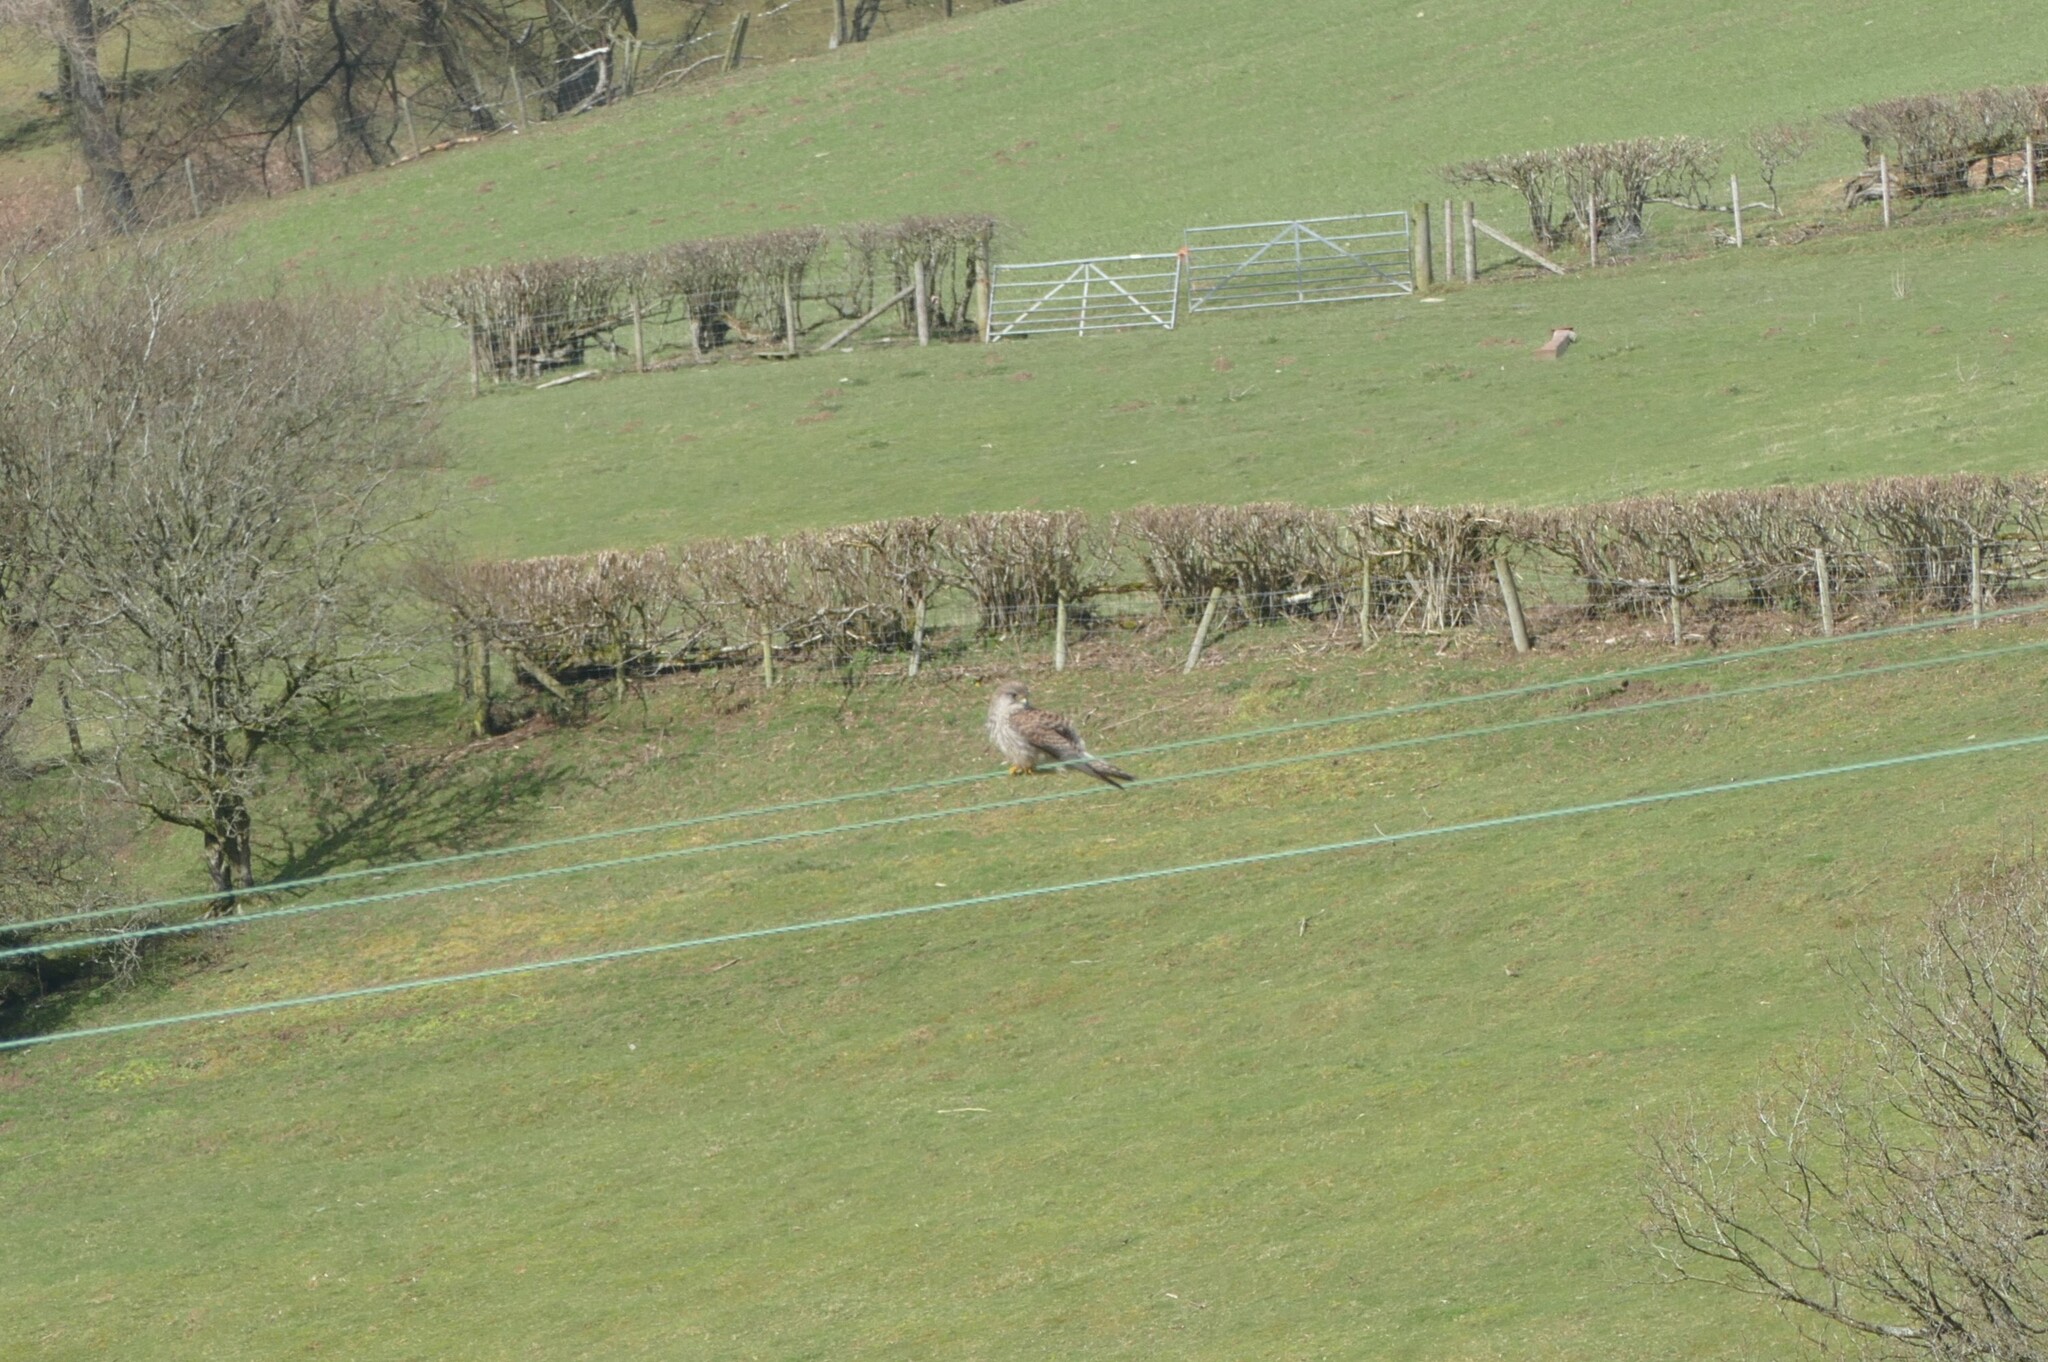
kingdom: Animalia
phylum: Chordata
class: Aves
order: Falconiformes
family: Falconidae
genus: Falco
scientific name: Falco tinnunculus
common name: Common kestrel
